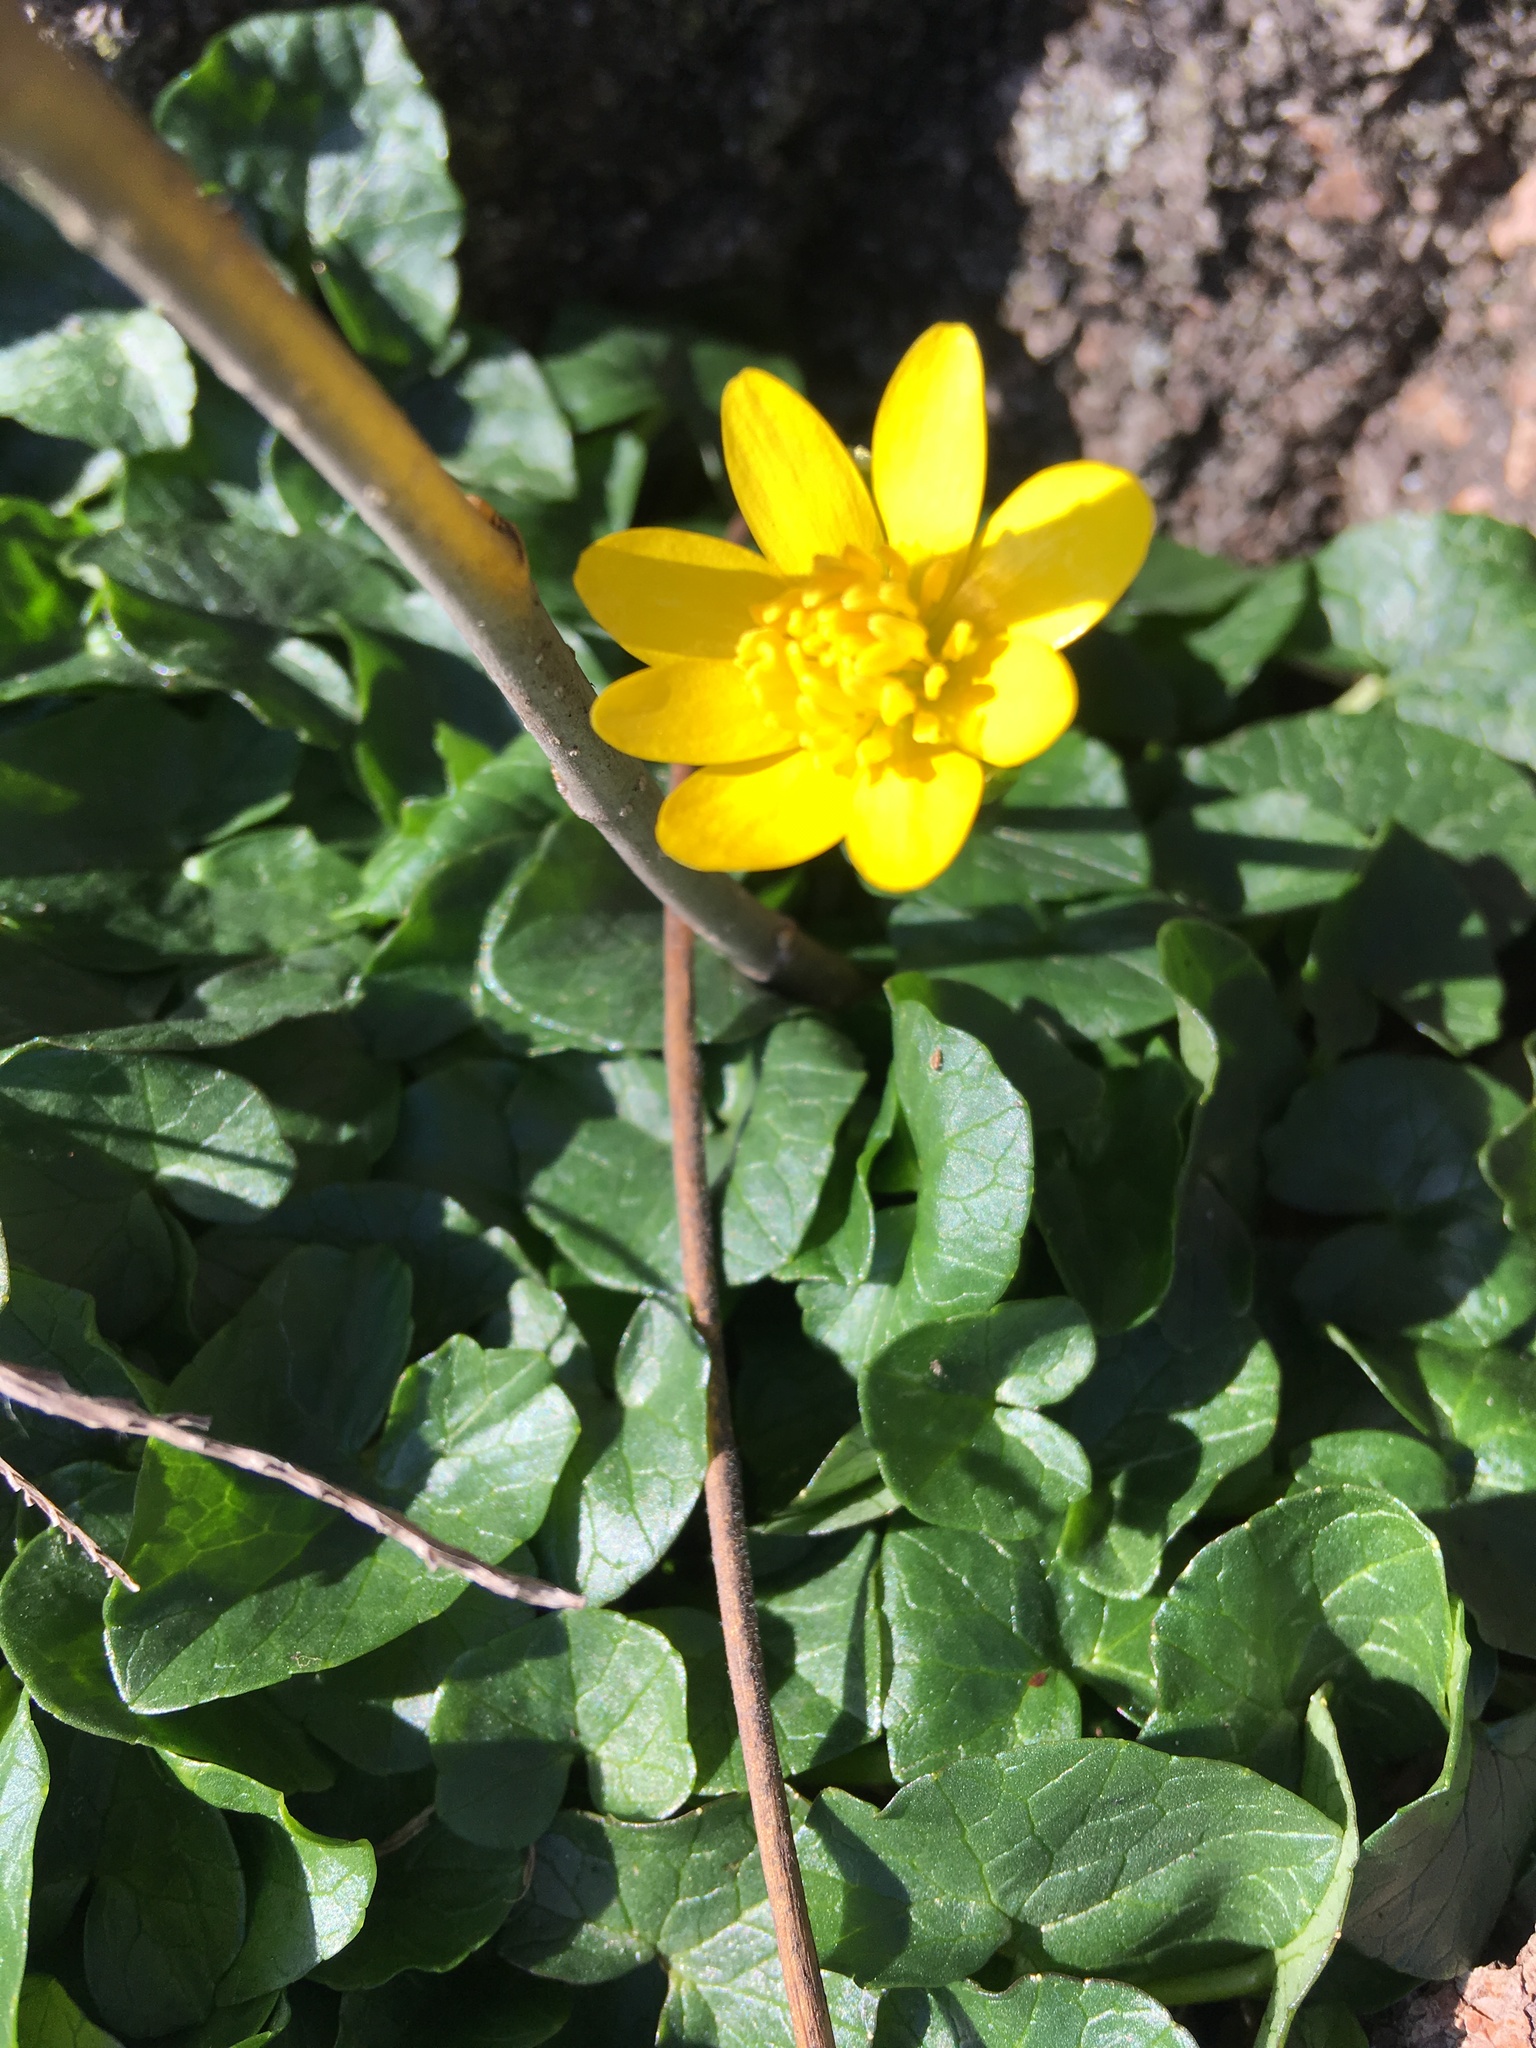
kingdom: Plantae
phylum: Tracheophyta
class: Magnoliopsida
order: Ranunculales
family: Ranunculaceae
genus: Ficaria
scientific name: Ficaria verna
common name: Lesser celandine
